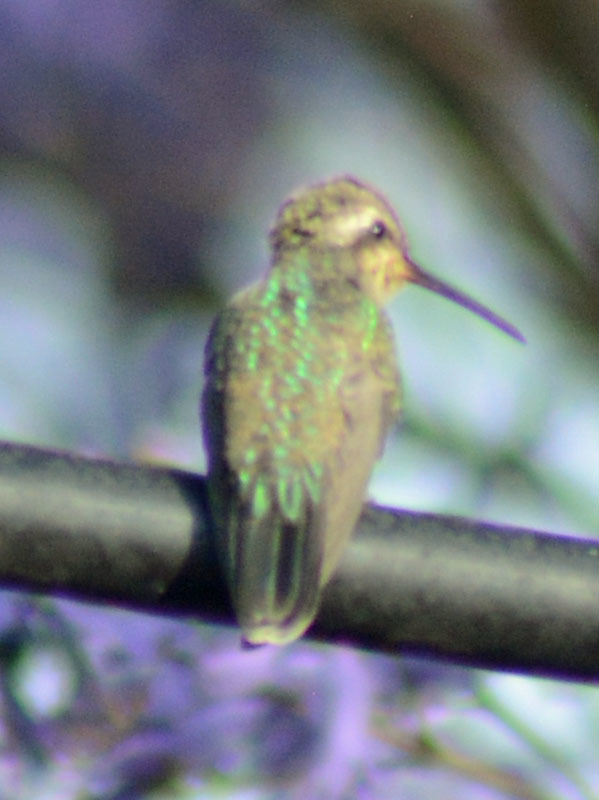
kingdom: Animalia
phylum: Chordata
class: Aves
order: Apodiformes
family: Trochilidae
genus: Cynanthus
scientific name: Cynanthus latirostris
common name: Broad-billed hummingbird
